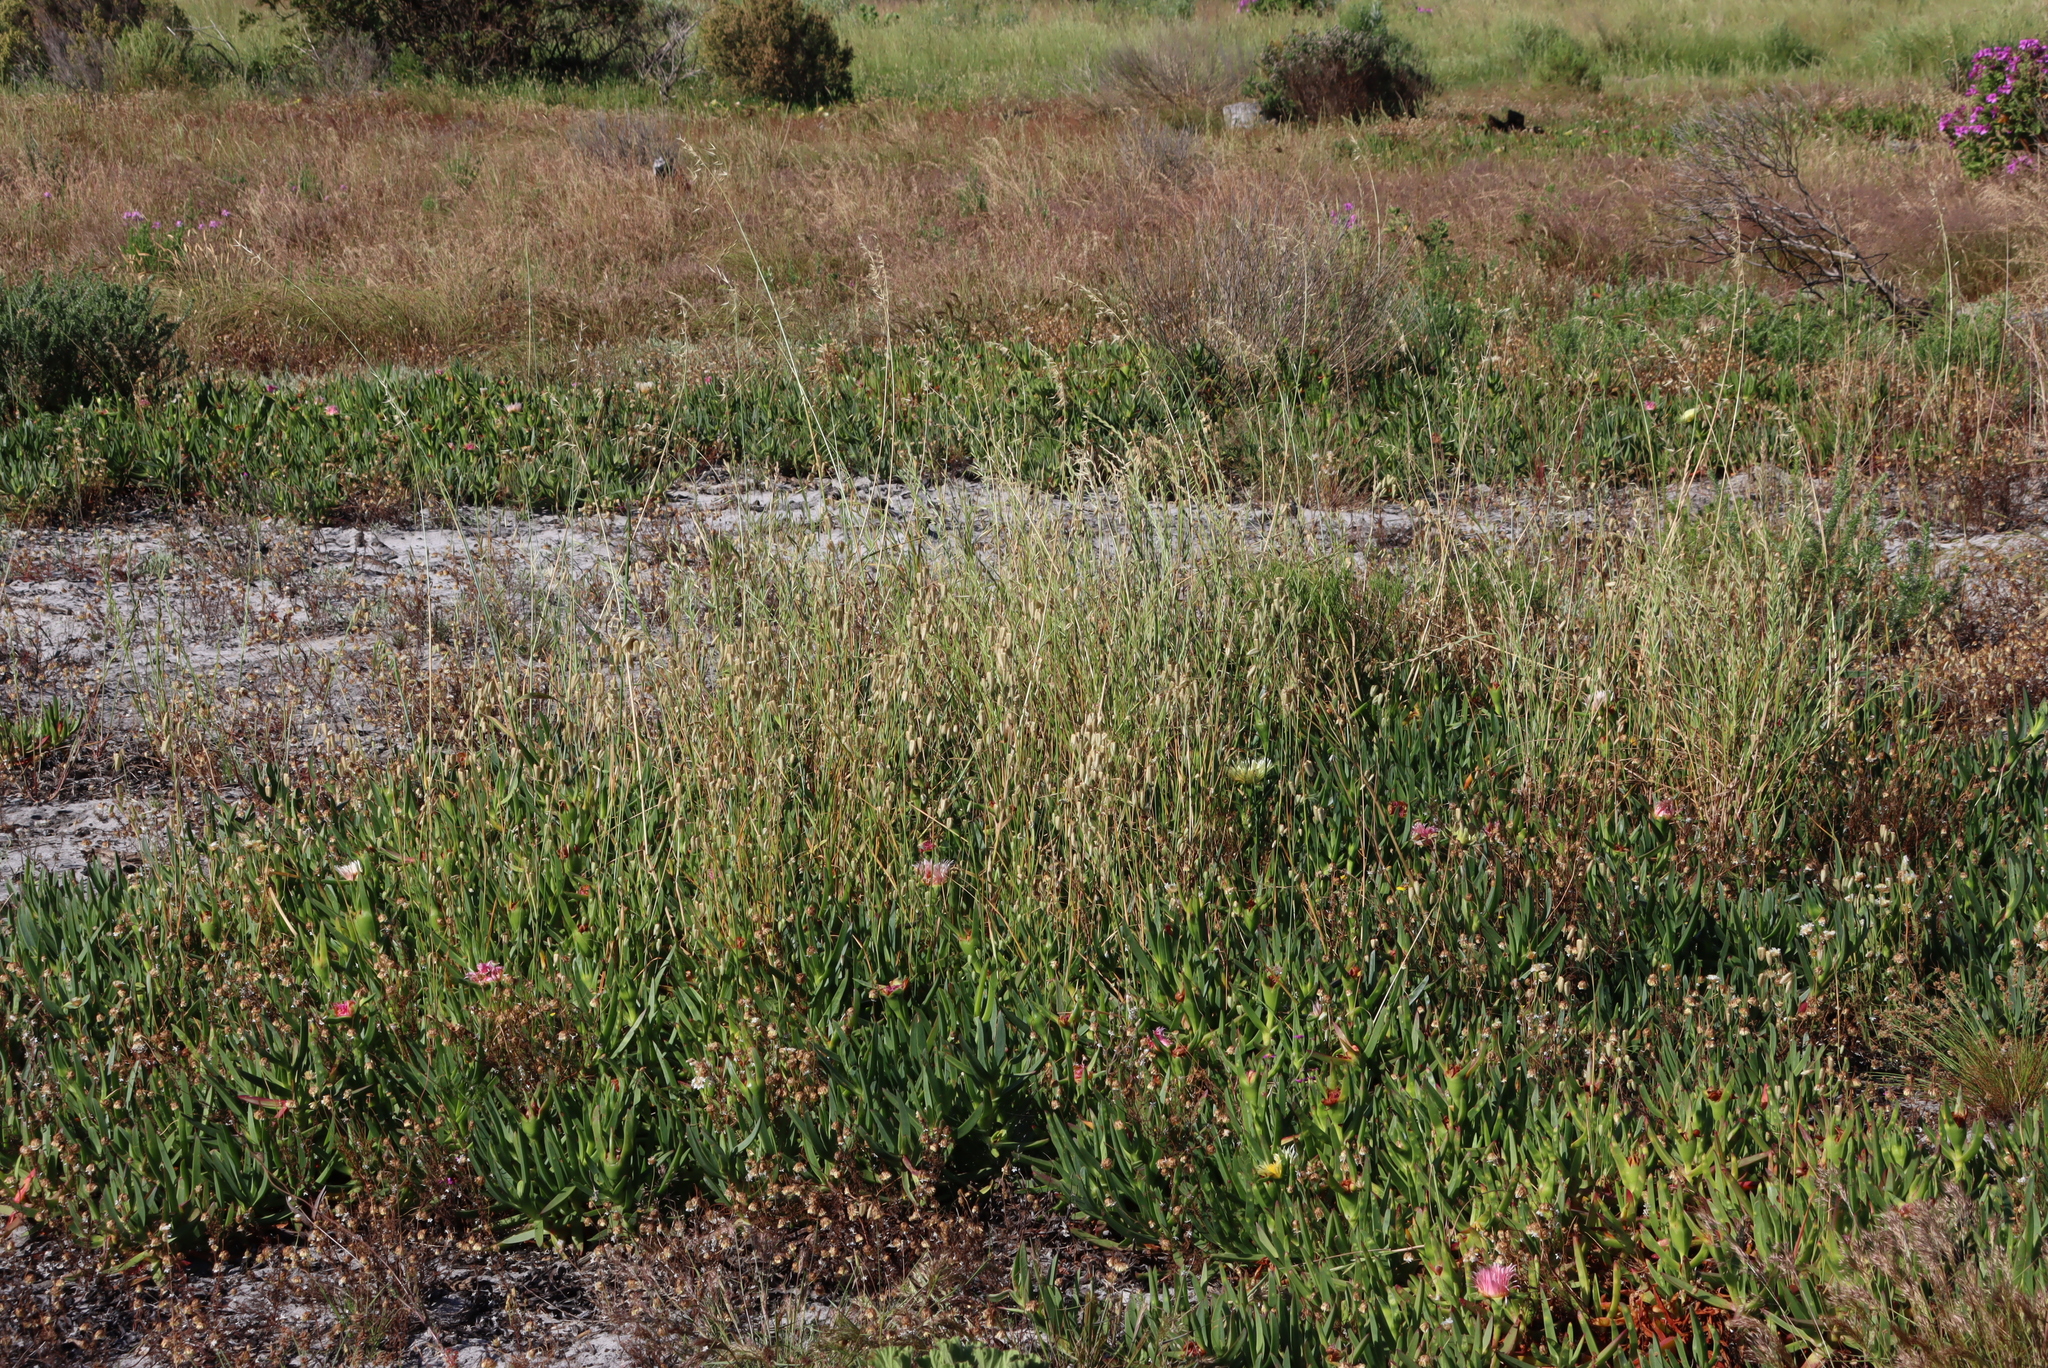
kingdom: Plantae
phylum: Tracheophyta
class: Magnoliopsida
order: Caryophyllales
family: Aizoaceae
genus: Carpobrotus
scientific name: Carpobrotus edulis
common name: Hottentot-fig
